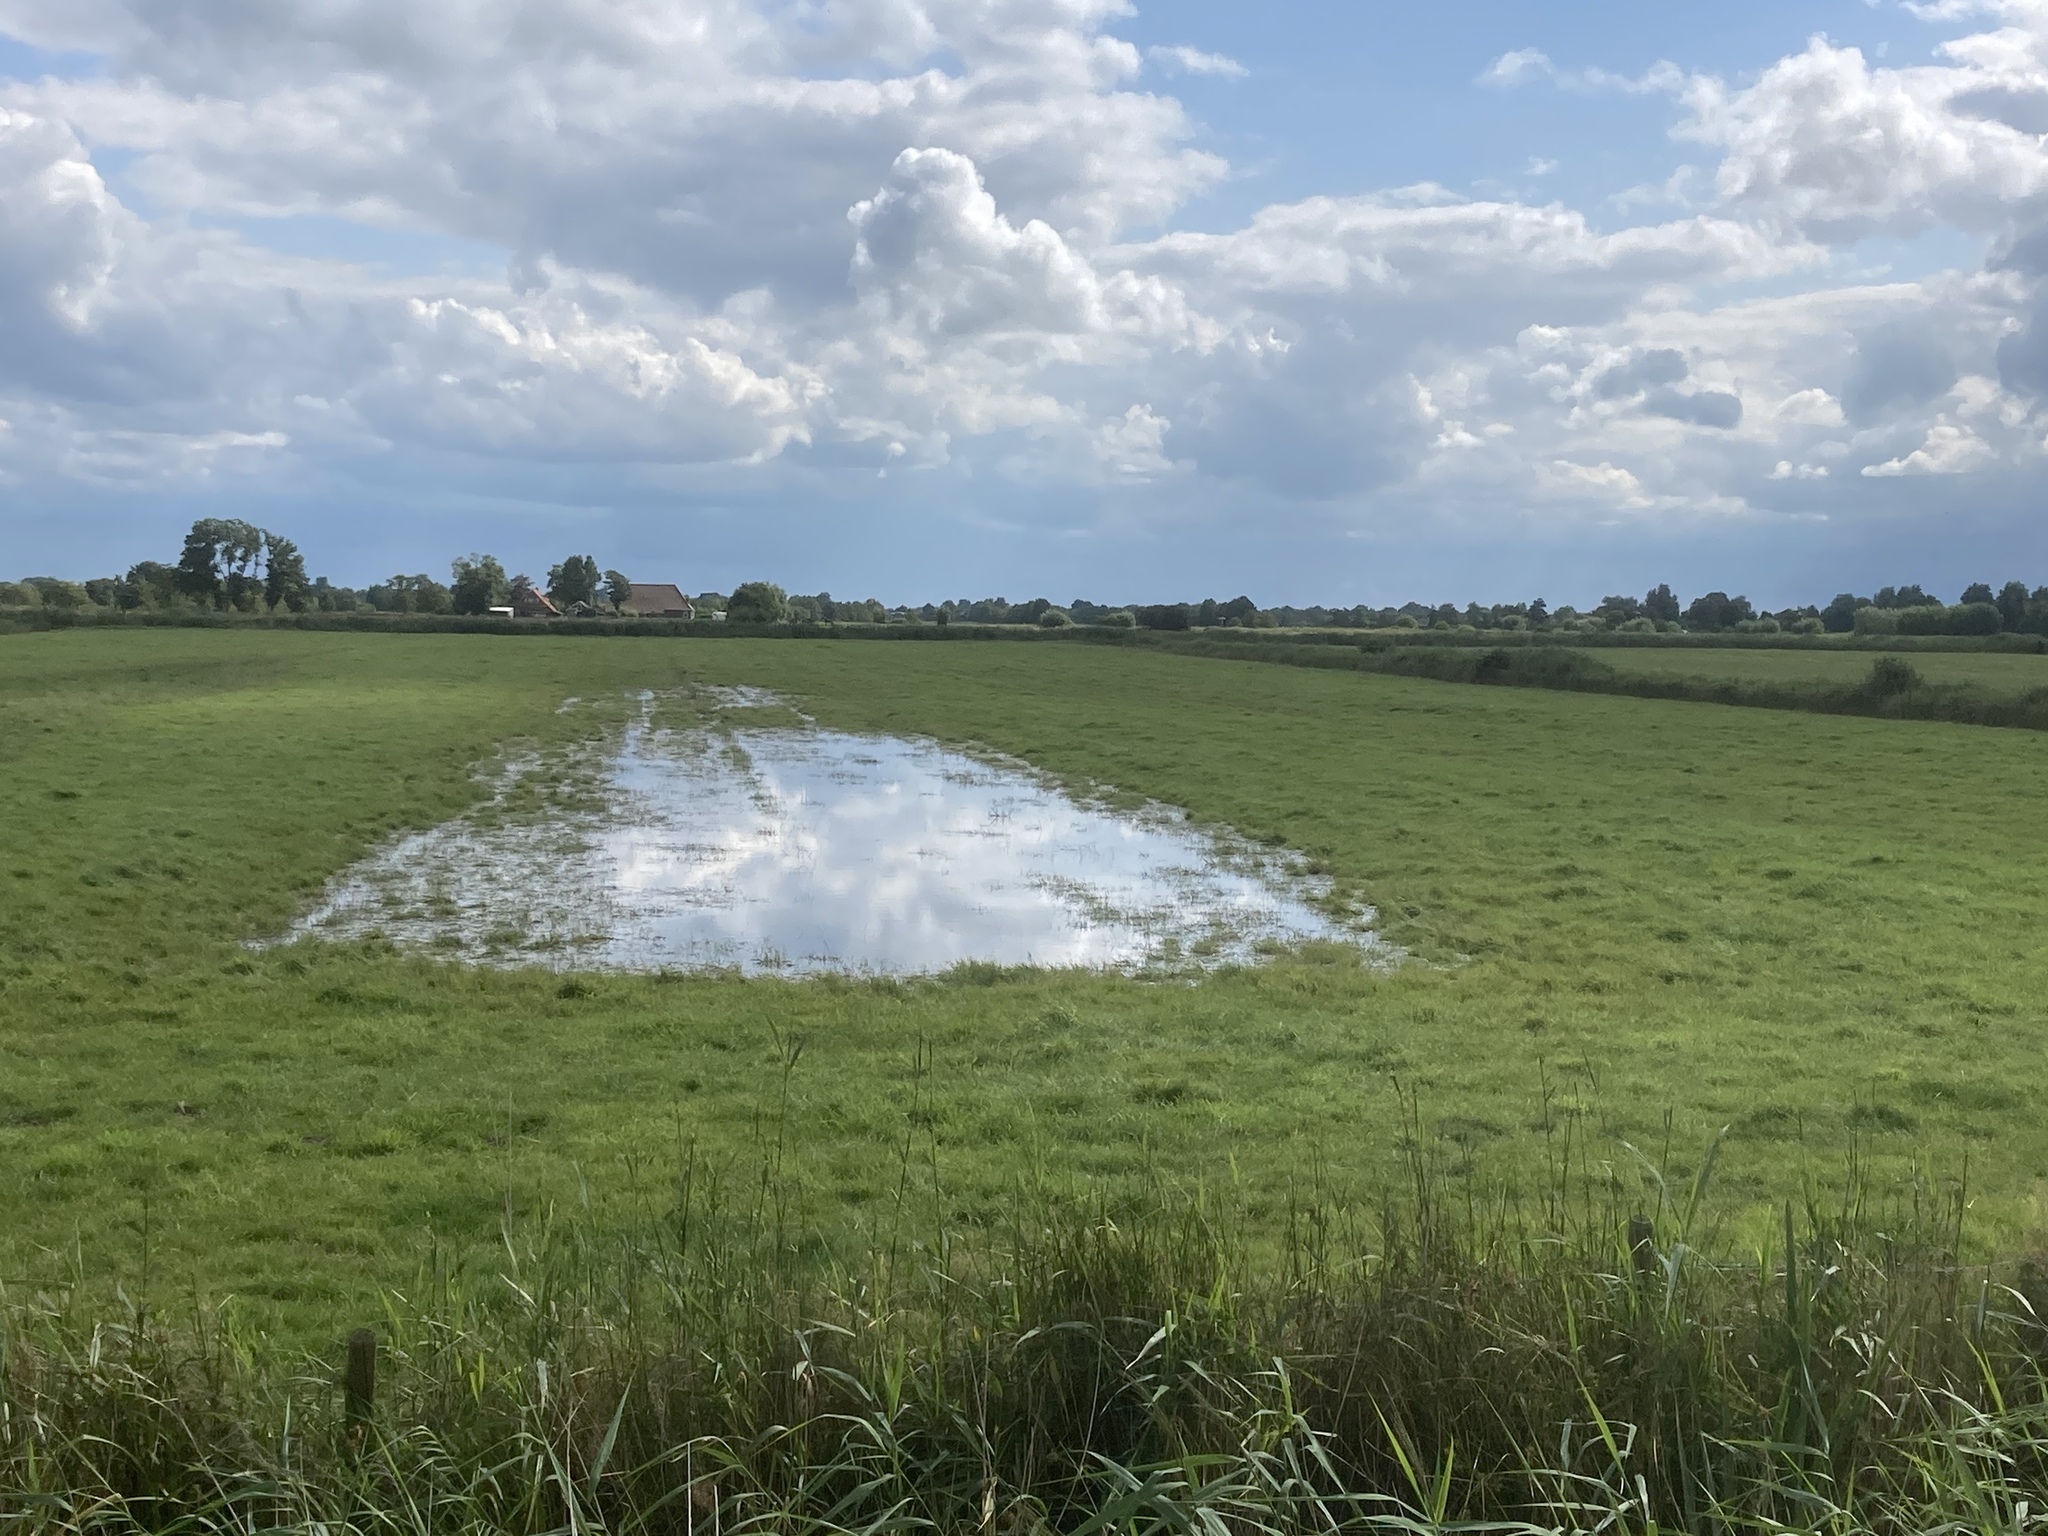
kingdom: Plantae
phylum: Tracheophyta
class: Liliopsida
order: Poales
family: Poaceae
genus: Phragmites
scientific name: Phragmites australis
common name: Common reed
